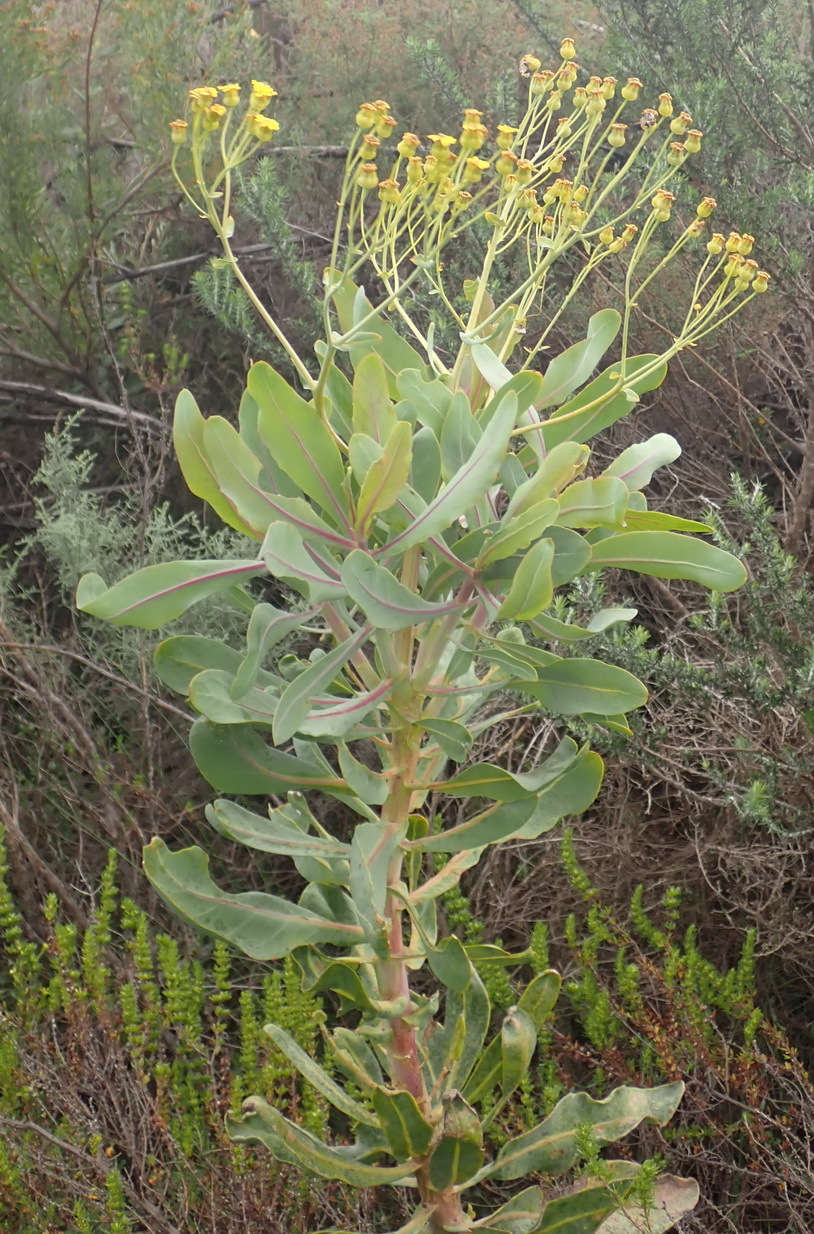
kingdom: Plantae
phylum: Tracheophyta
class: Magnoliopsida
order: Asterales
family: Asteraceae
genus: Othonna
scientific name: Othonna parviflora
